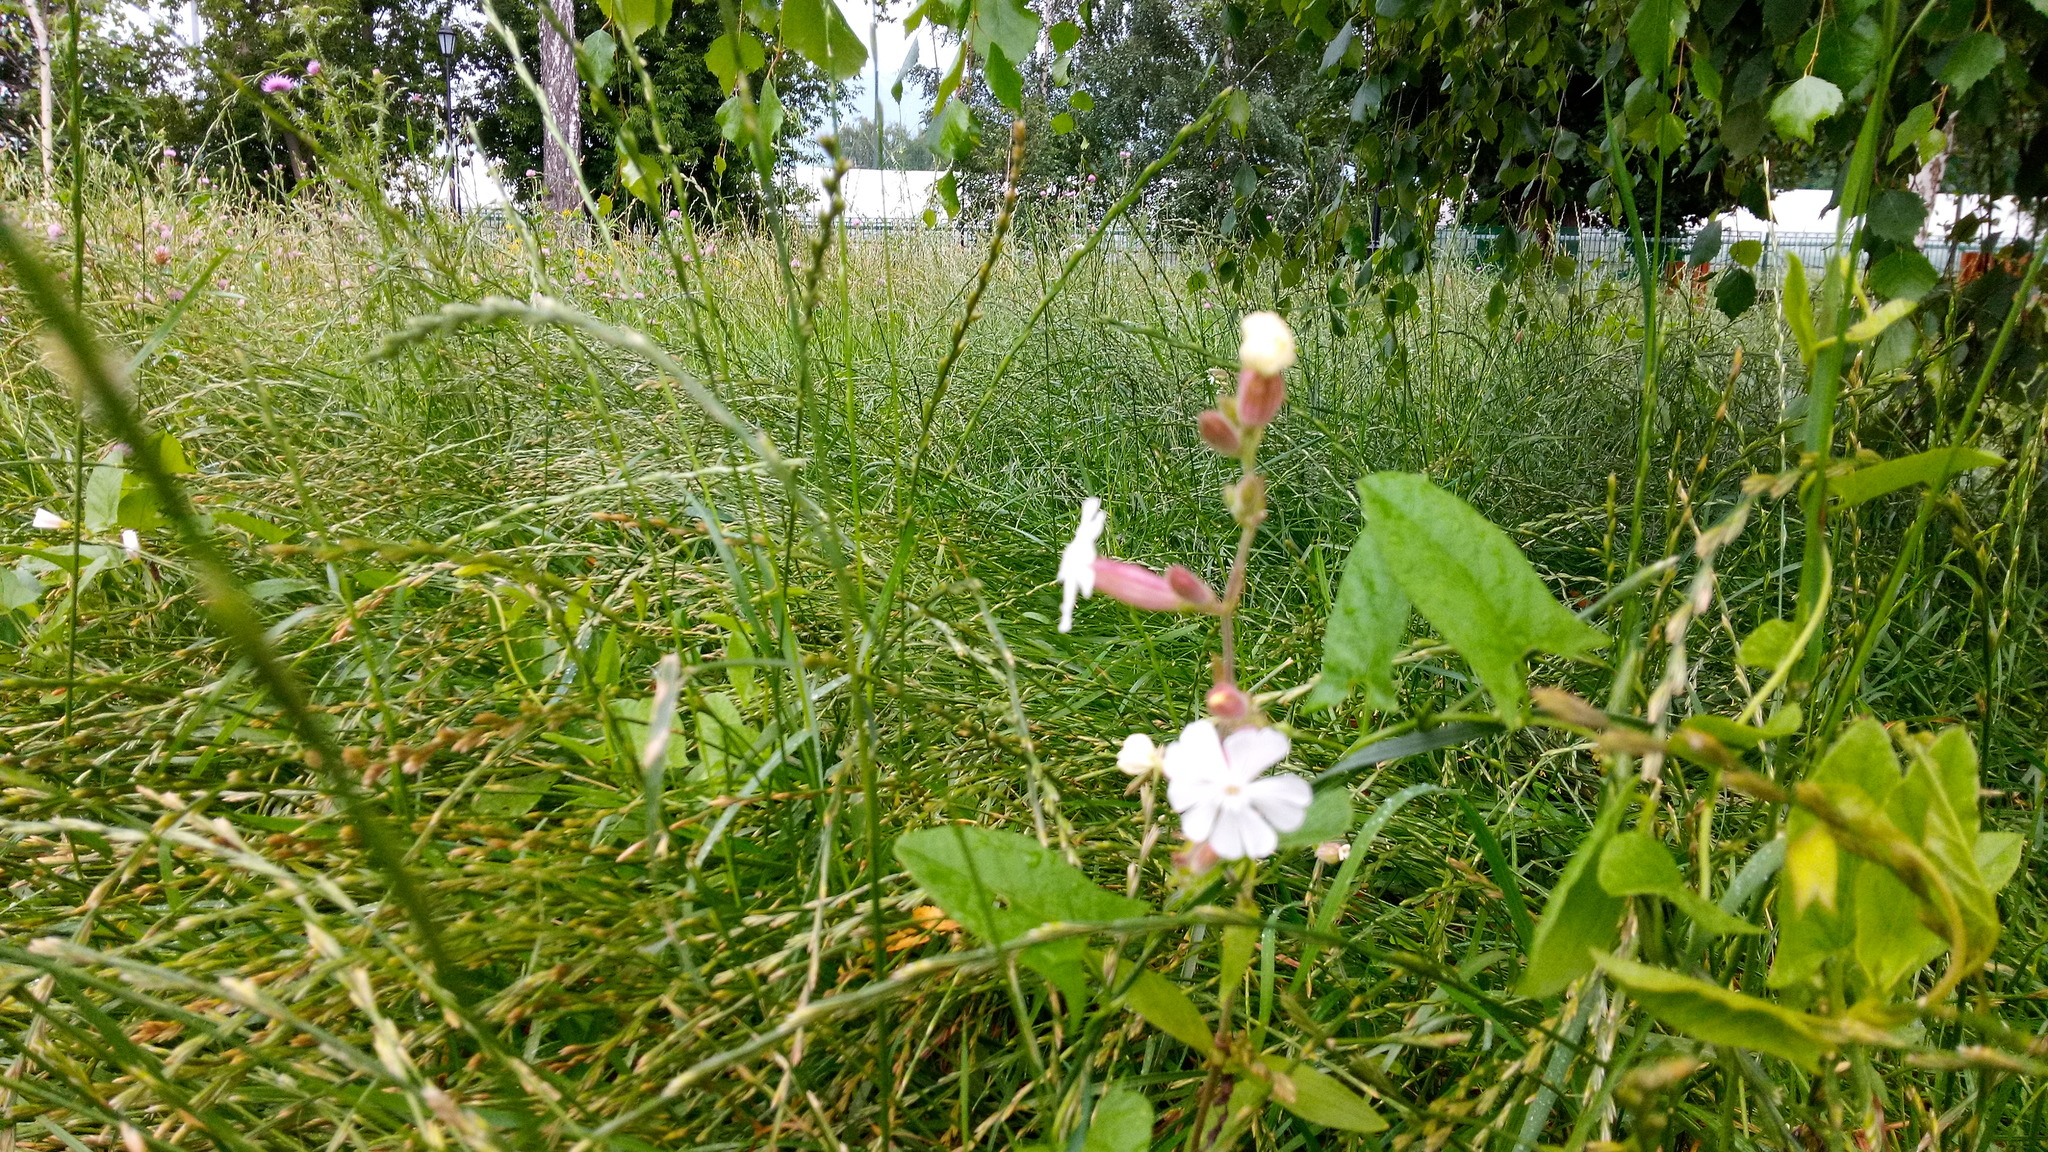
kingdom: Plantae
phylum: Tracheophyta
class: Magnoliopsida
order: Caryophyllales
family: Caryophyllaceae
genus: Silene
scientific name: Silene latifolia
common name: White campion
